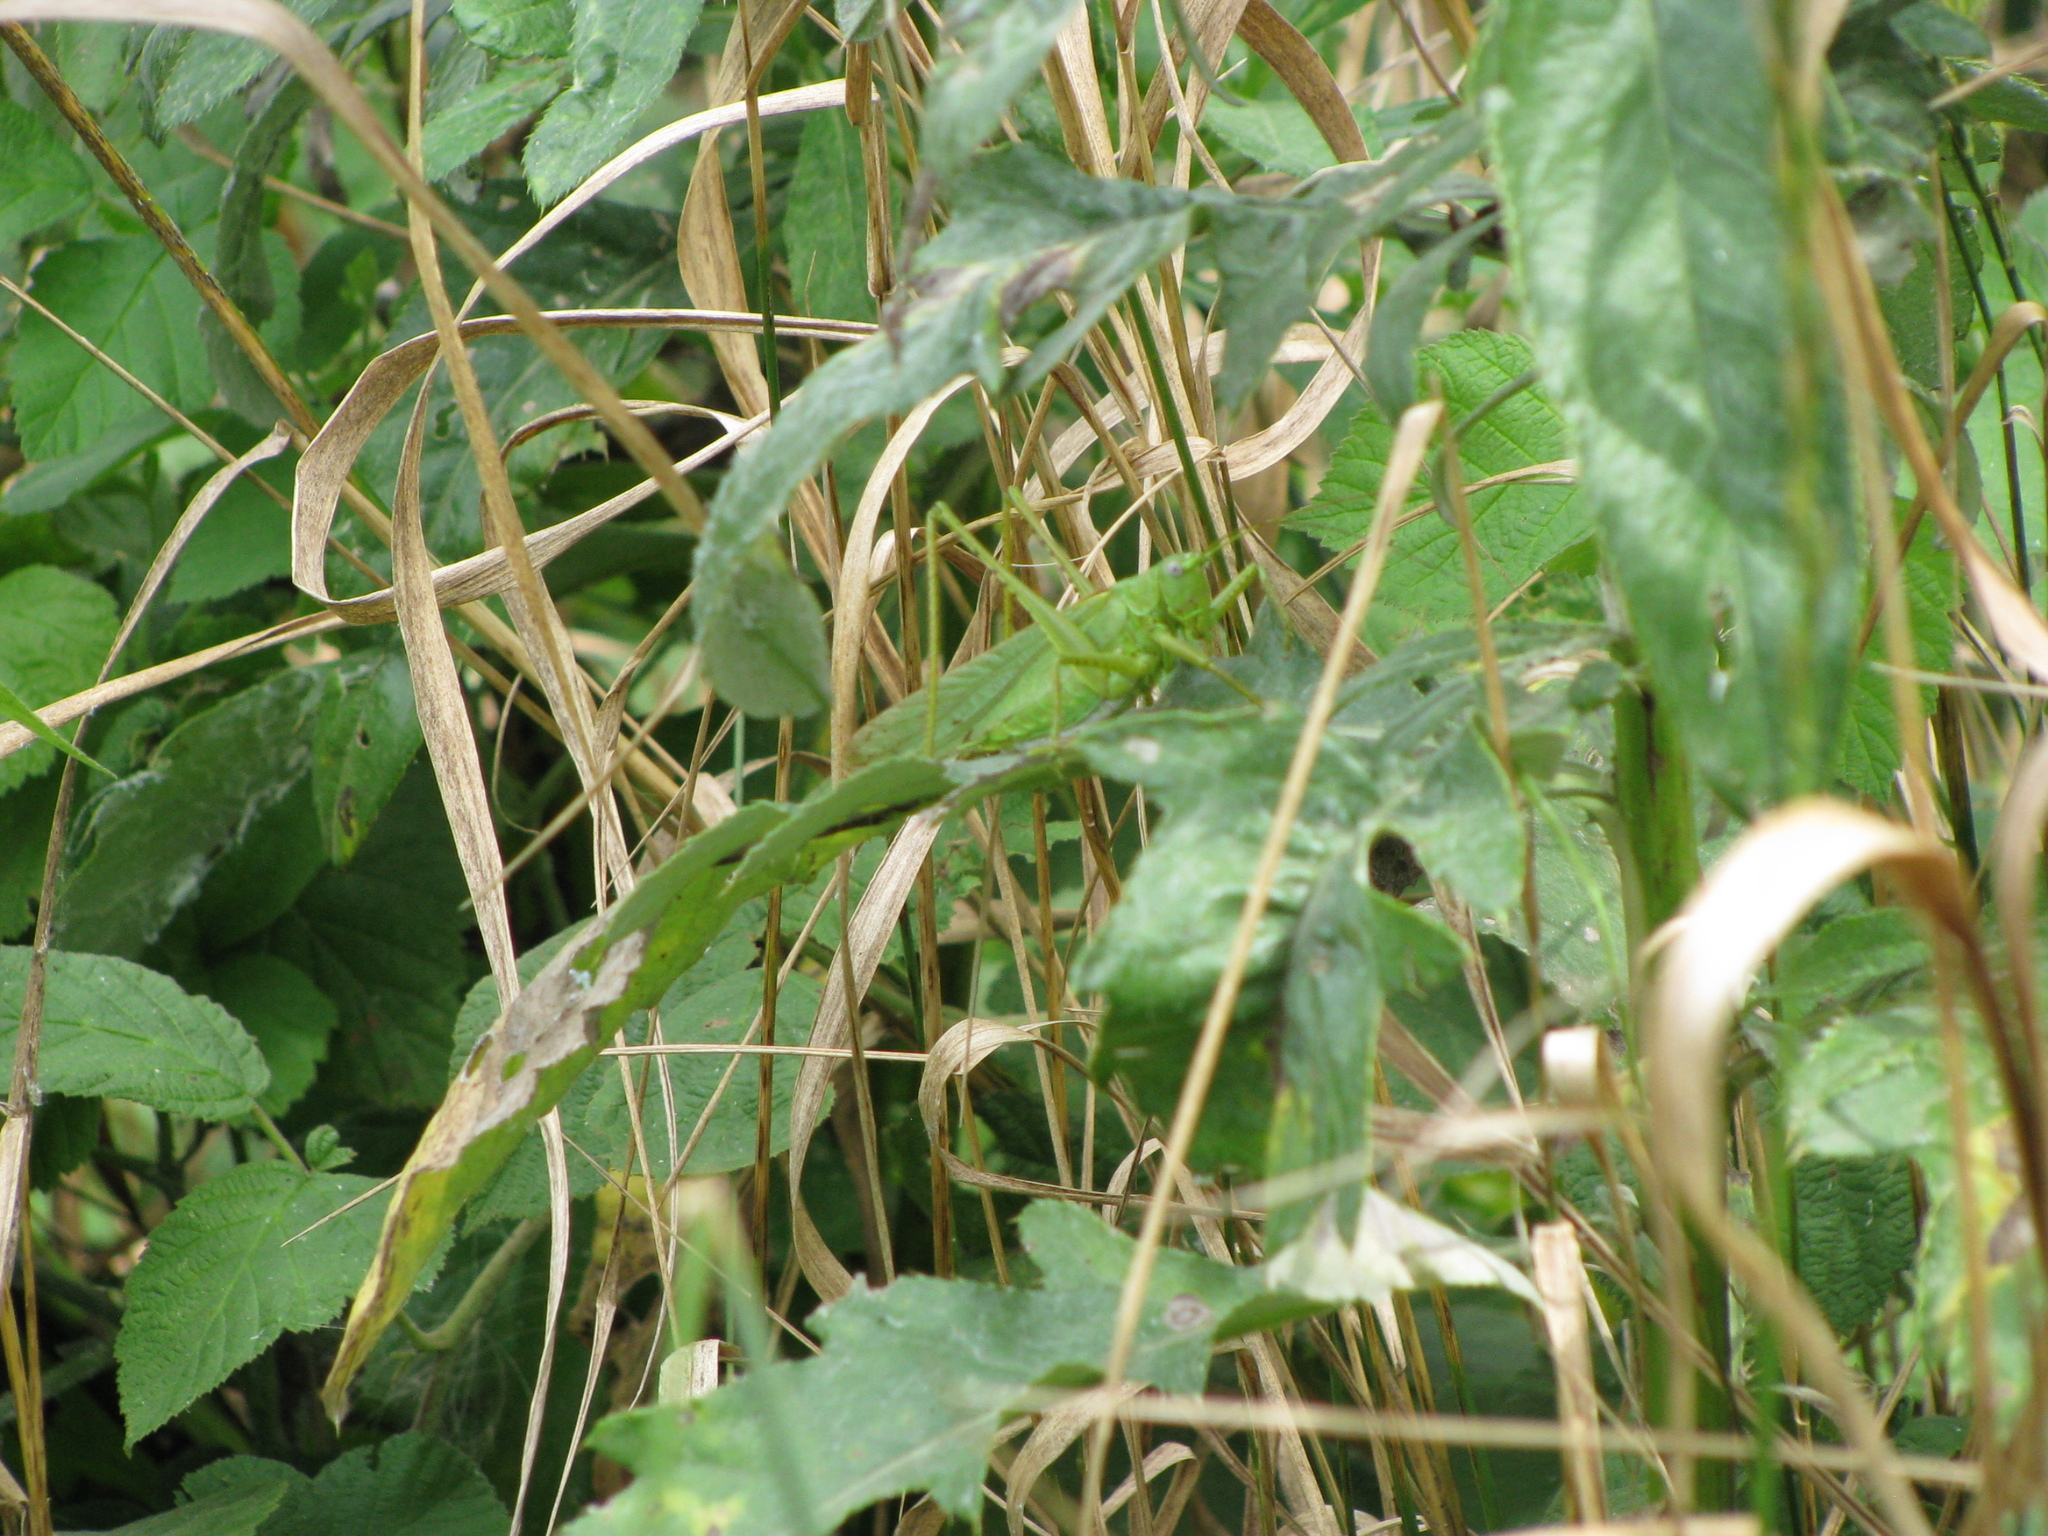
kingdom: Animalia
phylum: Arthropoda
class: Insecta
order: Orthoptera
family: Tettigoniidae
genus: Tettigonia
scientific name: Tettigonia caudata
